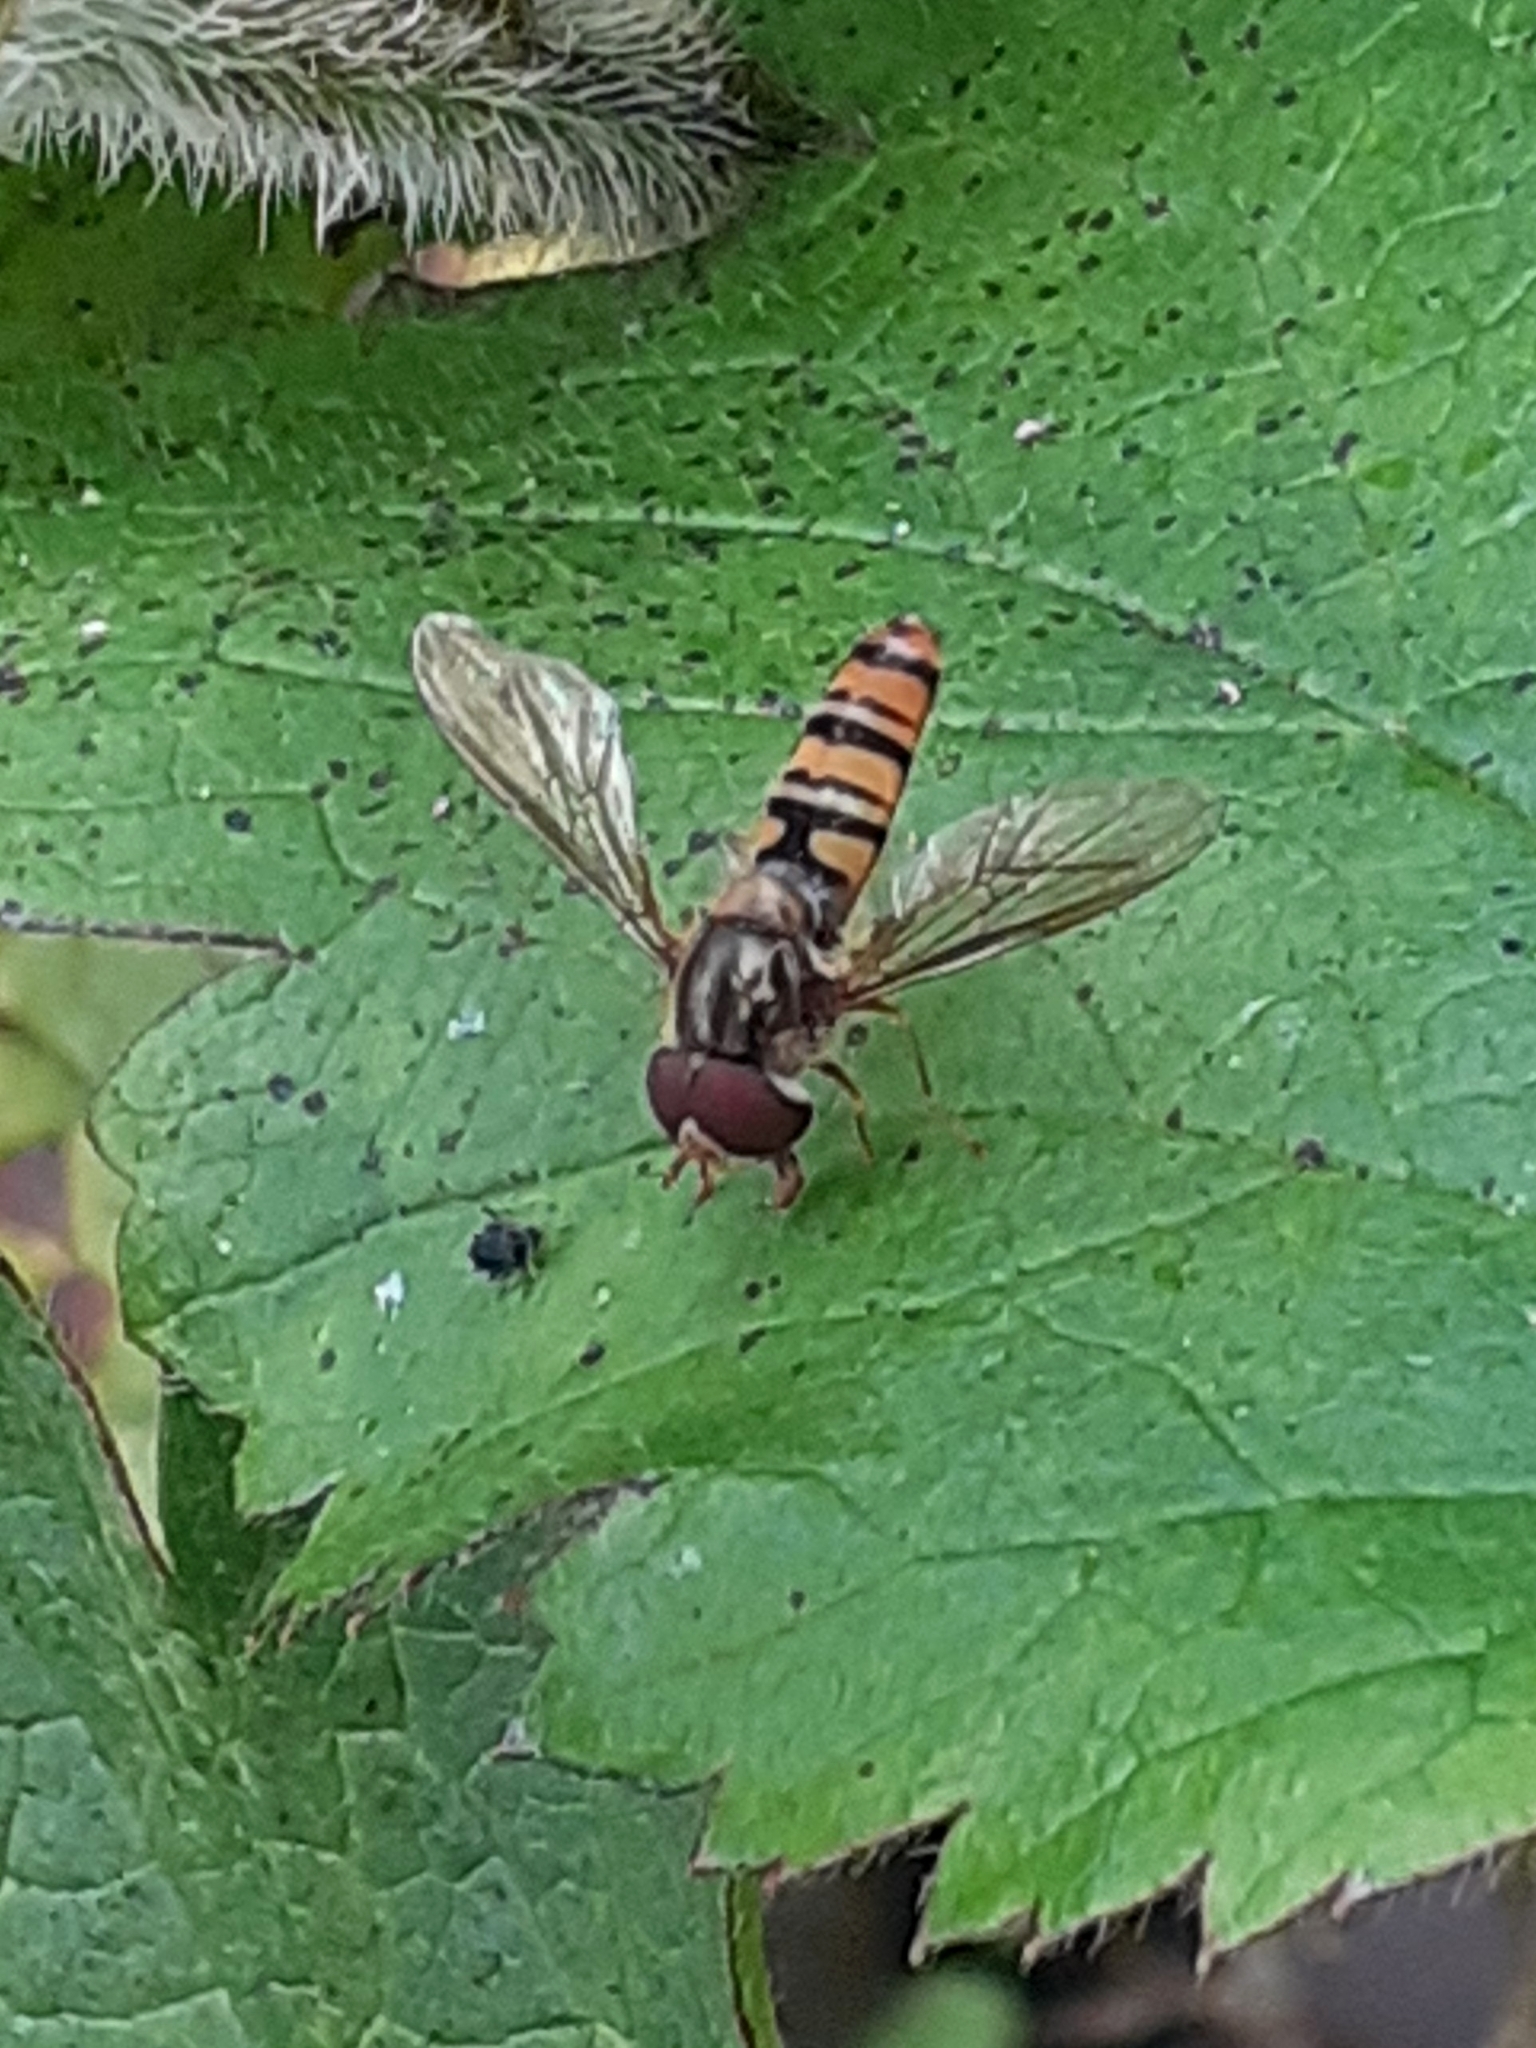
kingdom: Animalia
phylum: Arthropoda
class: Insecta
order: Diptera
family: Syrphidae
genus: Episyrphus
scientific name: Episyrphus balteatus
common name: Marmalade hoverfly
